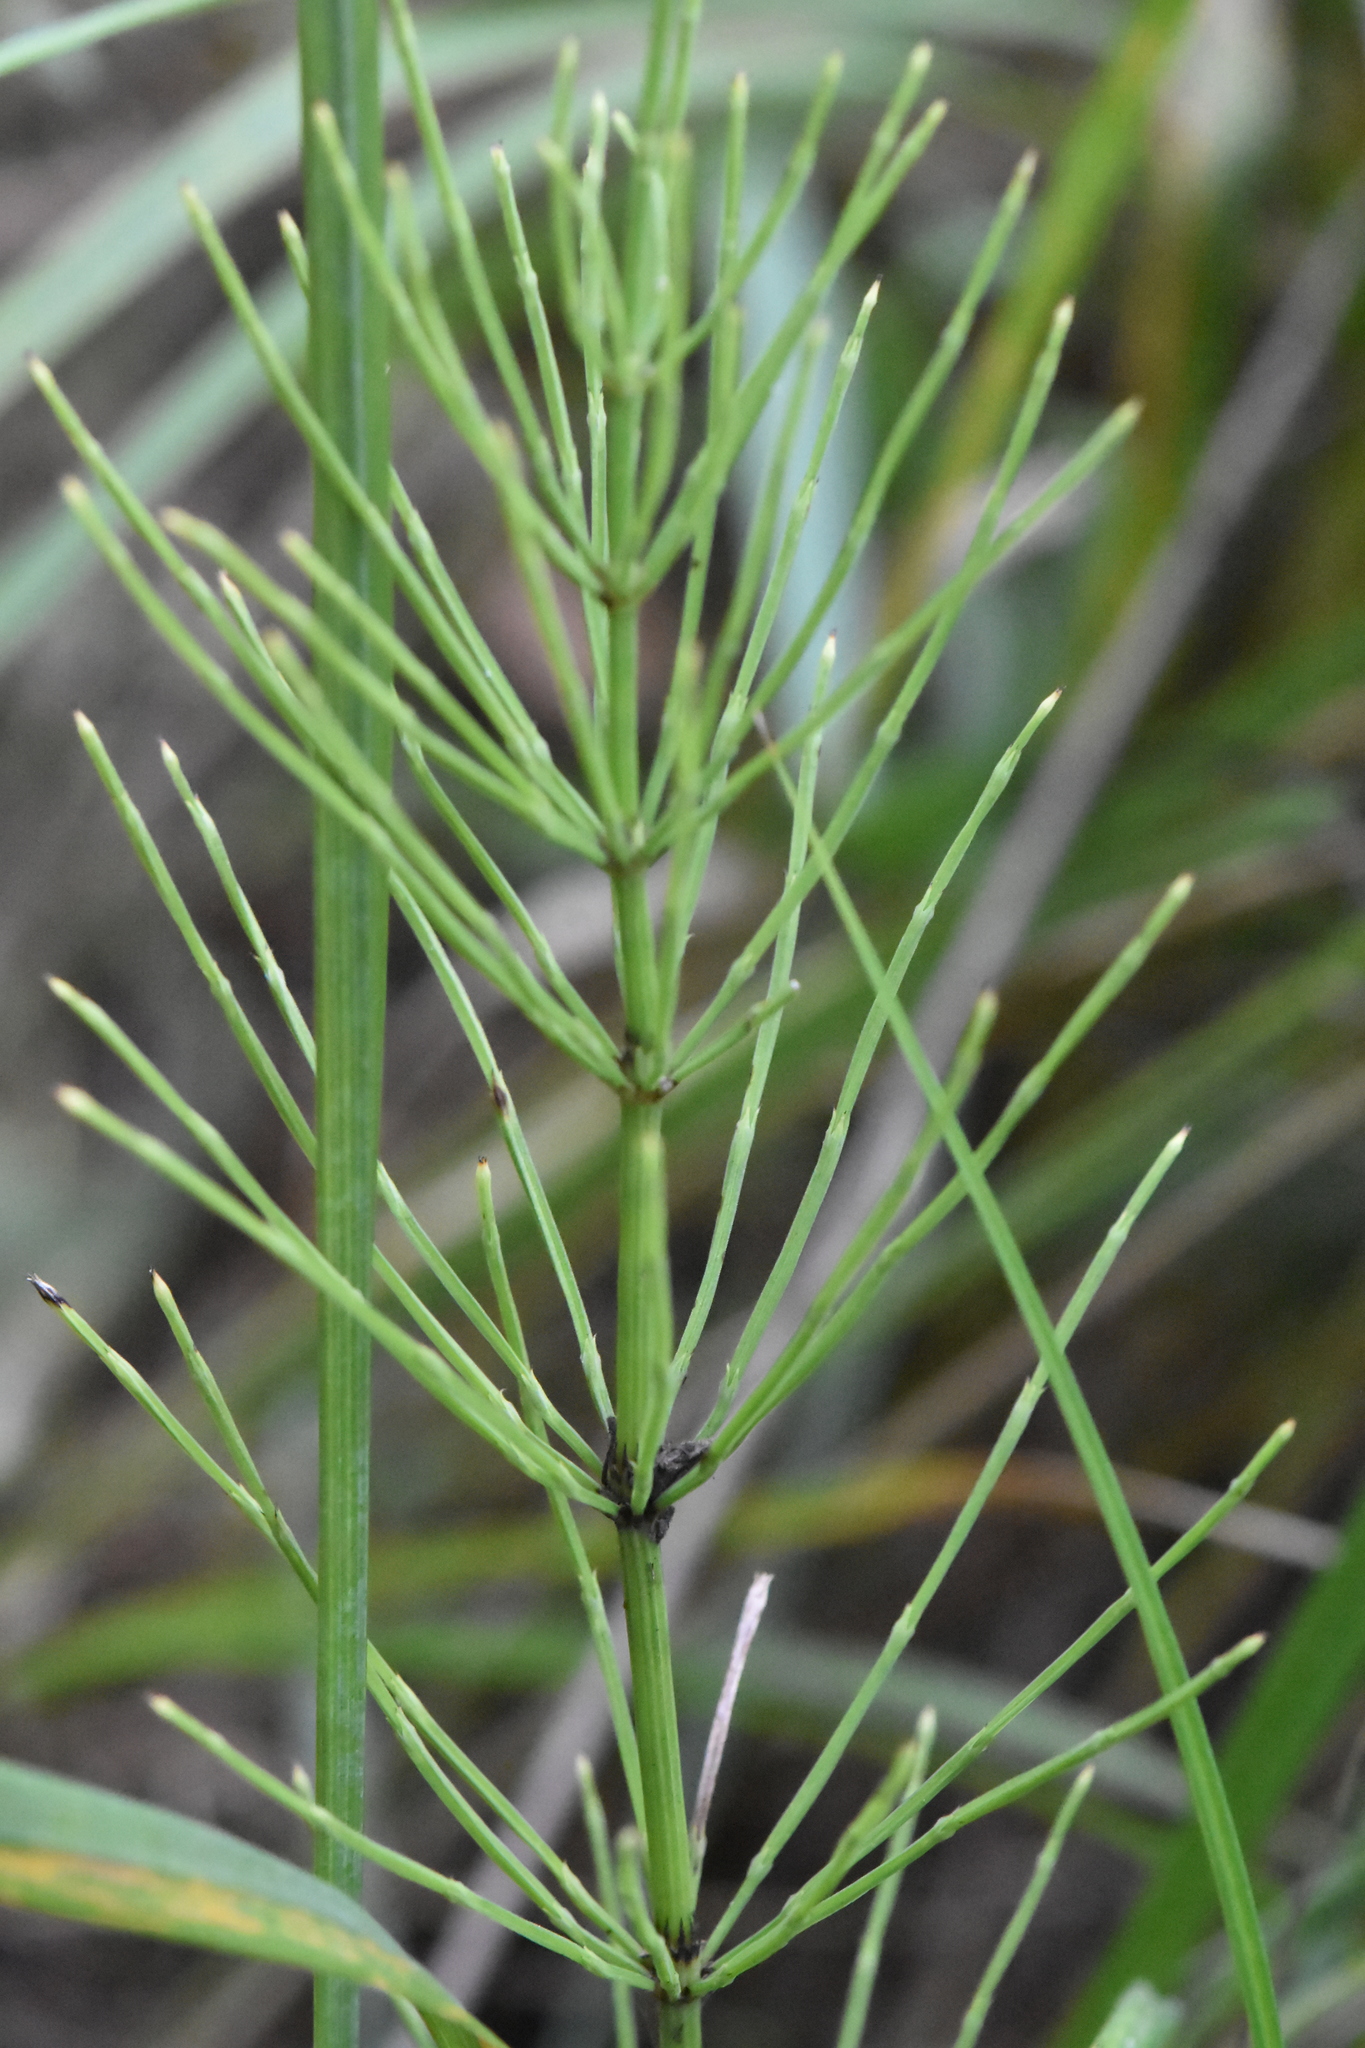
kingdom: Plantae
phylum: Tracheophyta
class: Polypodiopsida
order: Equisetales
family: Equisetaceae
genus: Equisetum
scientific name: Equisetum arvense
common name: Field horsetail
